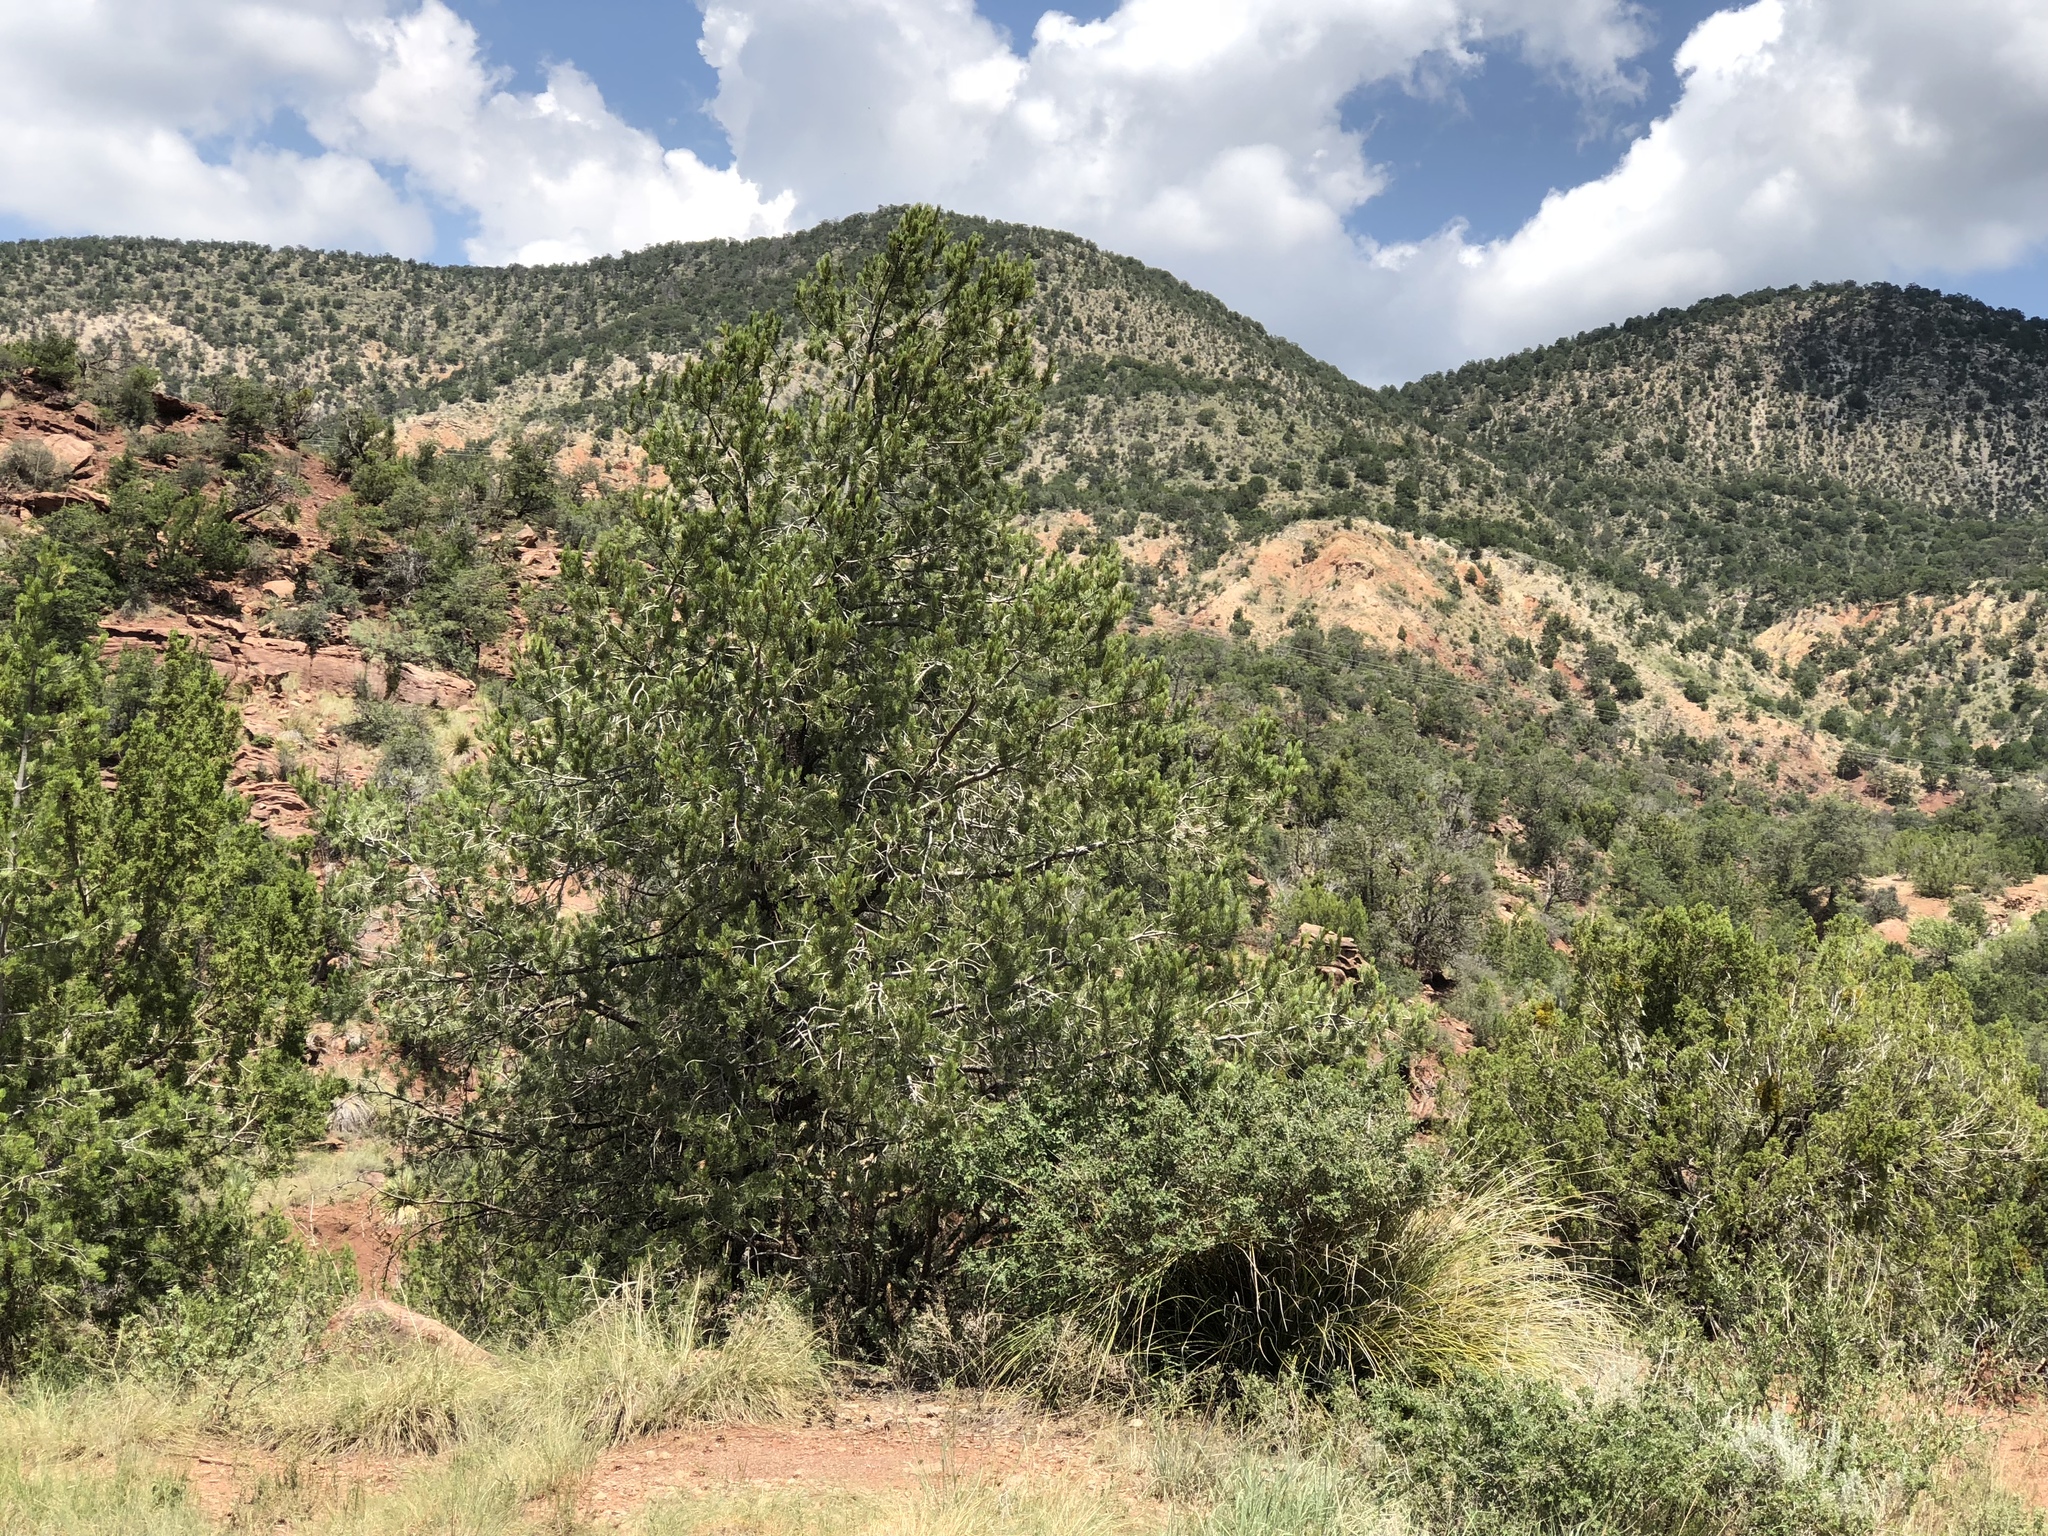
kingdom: Plantae
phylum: Tracheophyta
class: Pinopsida
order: Pinales
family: Pinaceae
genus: Pinus
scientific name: Pinus edulis
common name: Colorado pinyon
